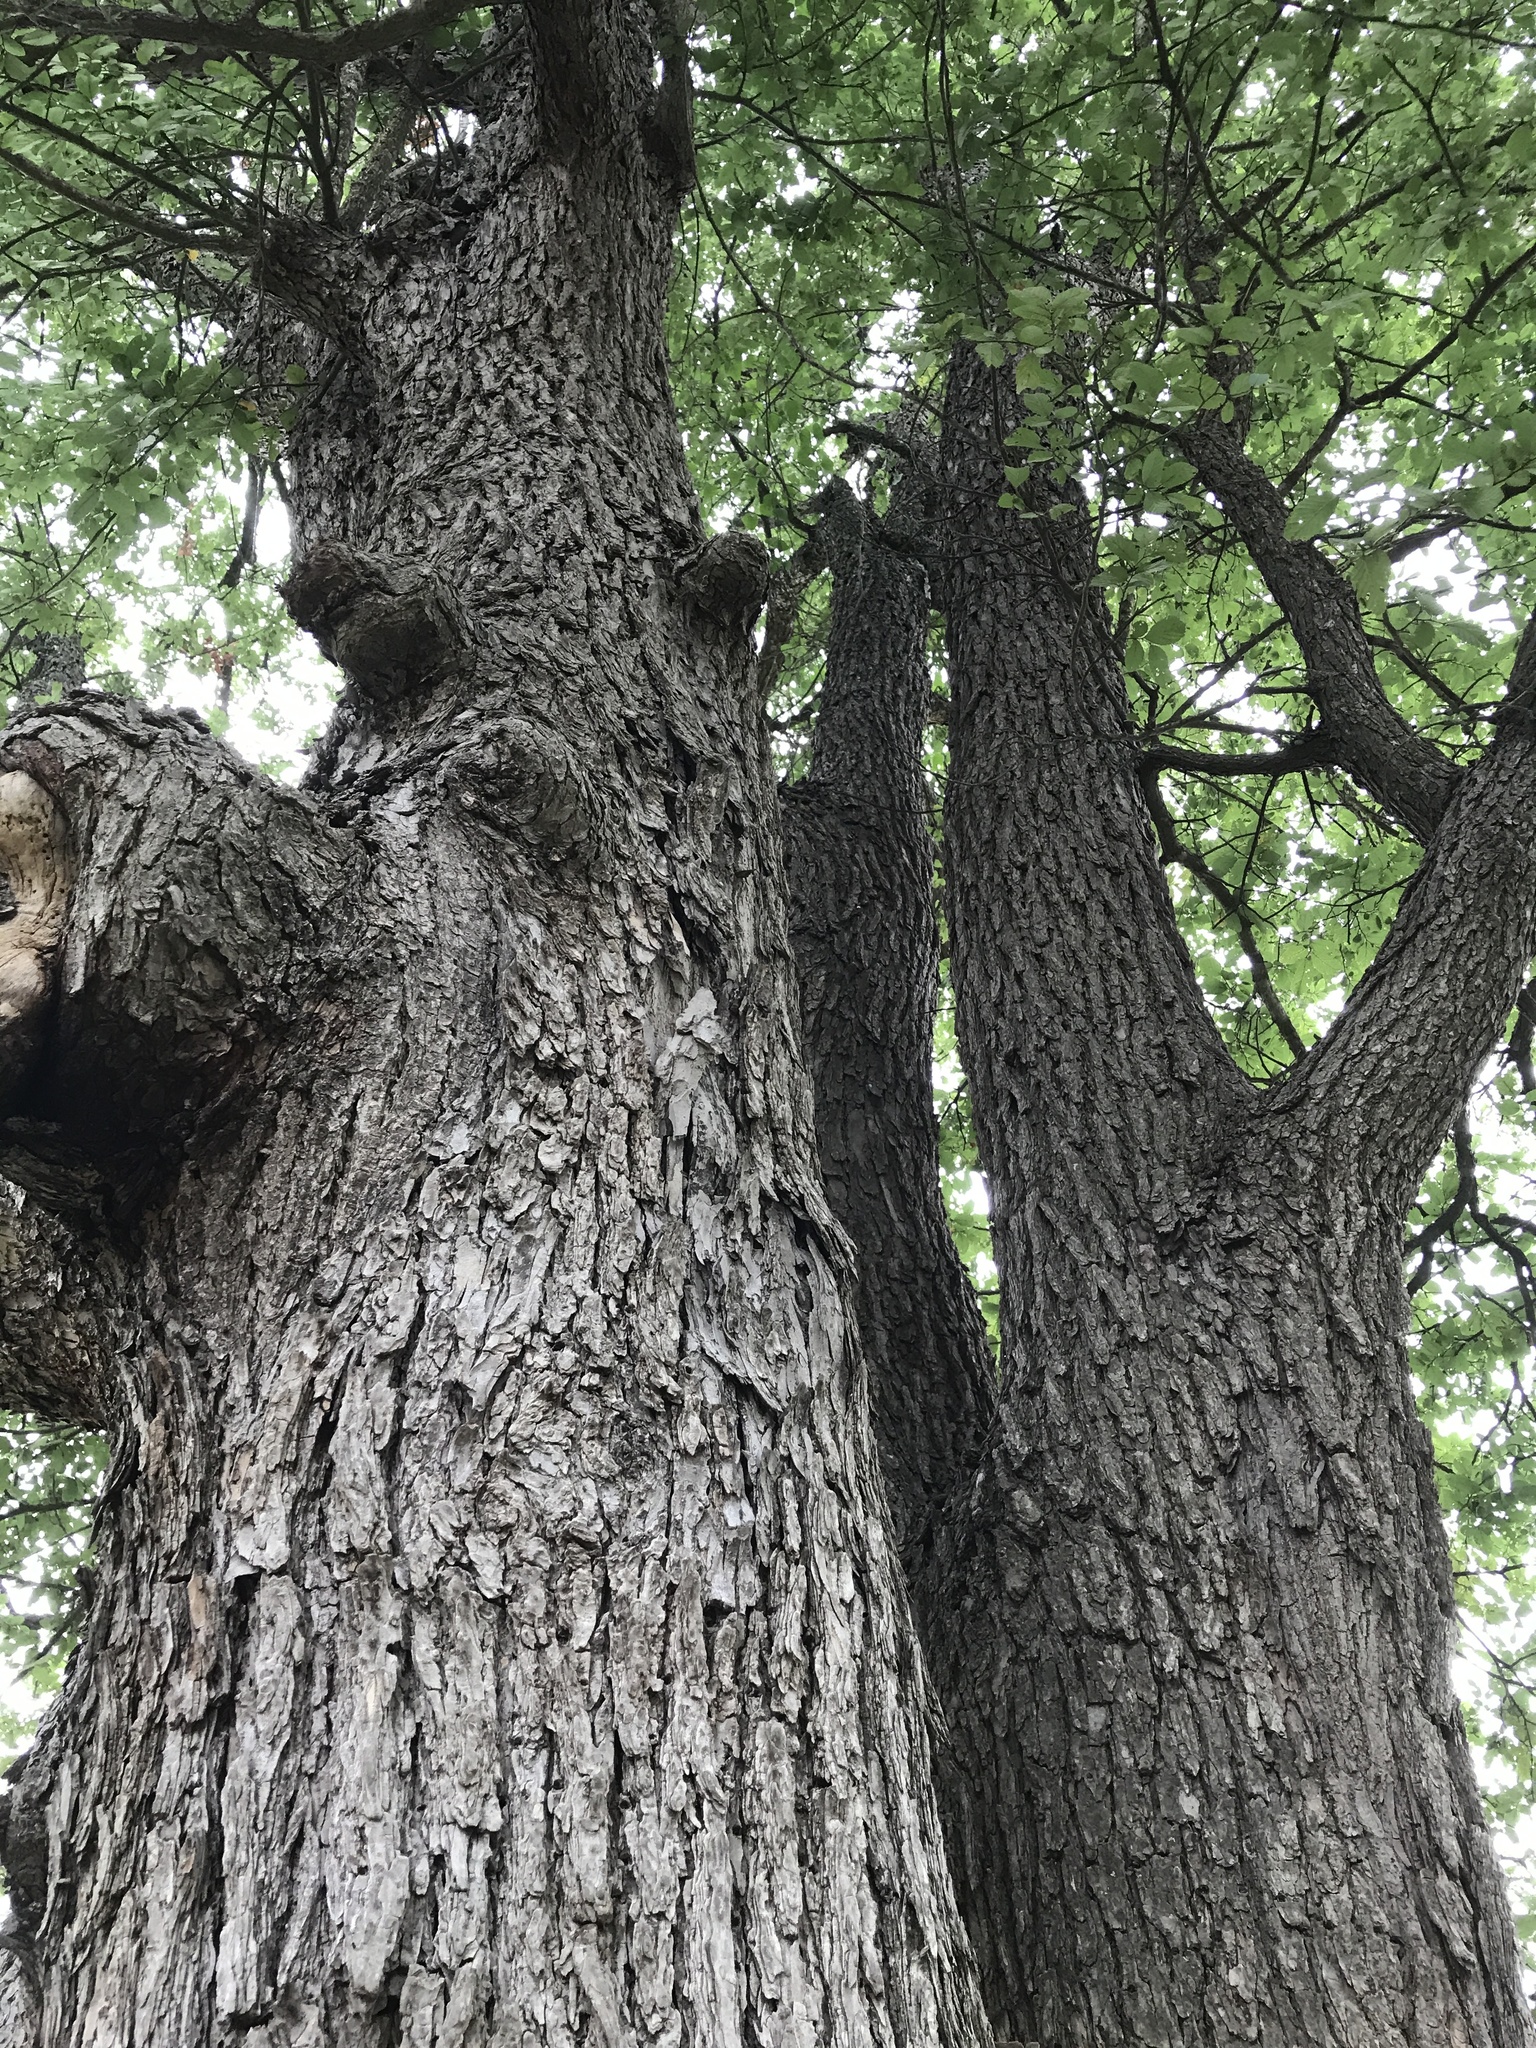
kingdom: Plantae
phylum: Tracheophyta
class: Magnoliopsida
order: Rosales
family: Ulmaceae
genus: Ulmus
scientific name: Ulmus crassifolia
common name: Basket elm
